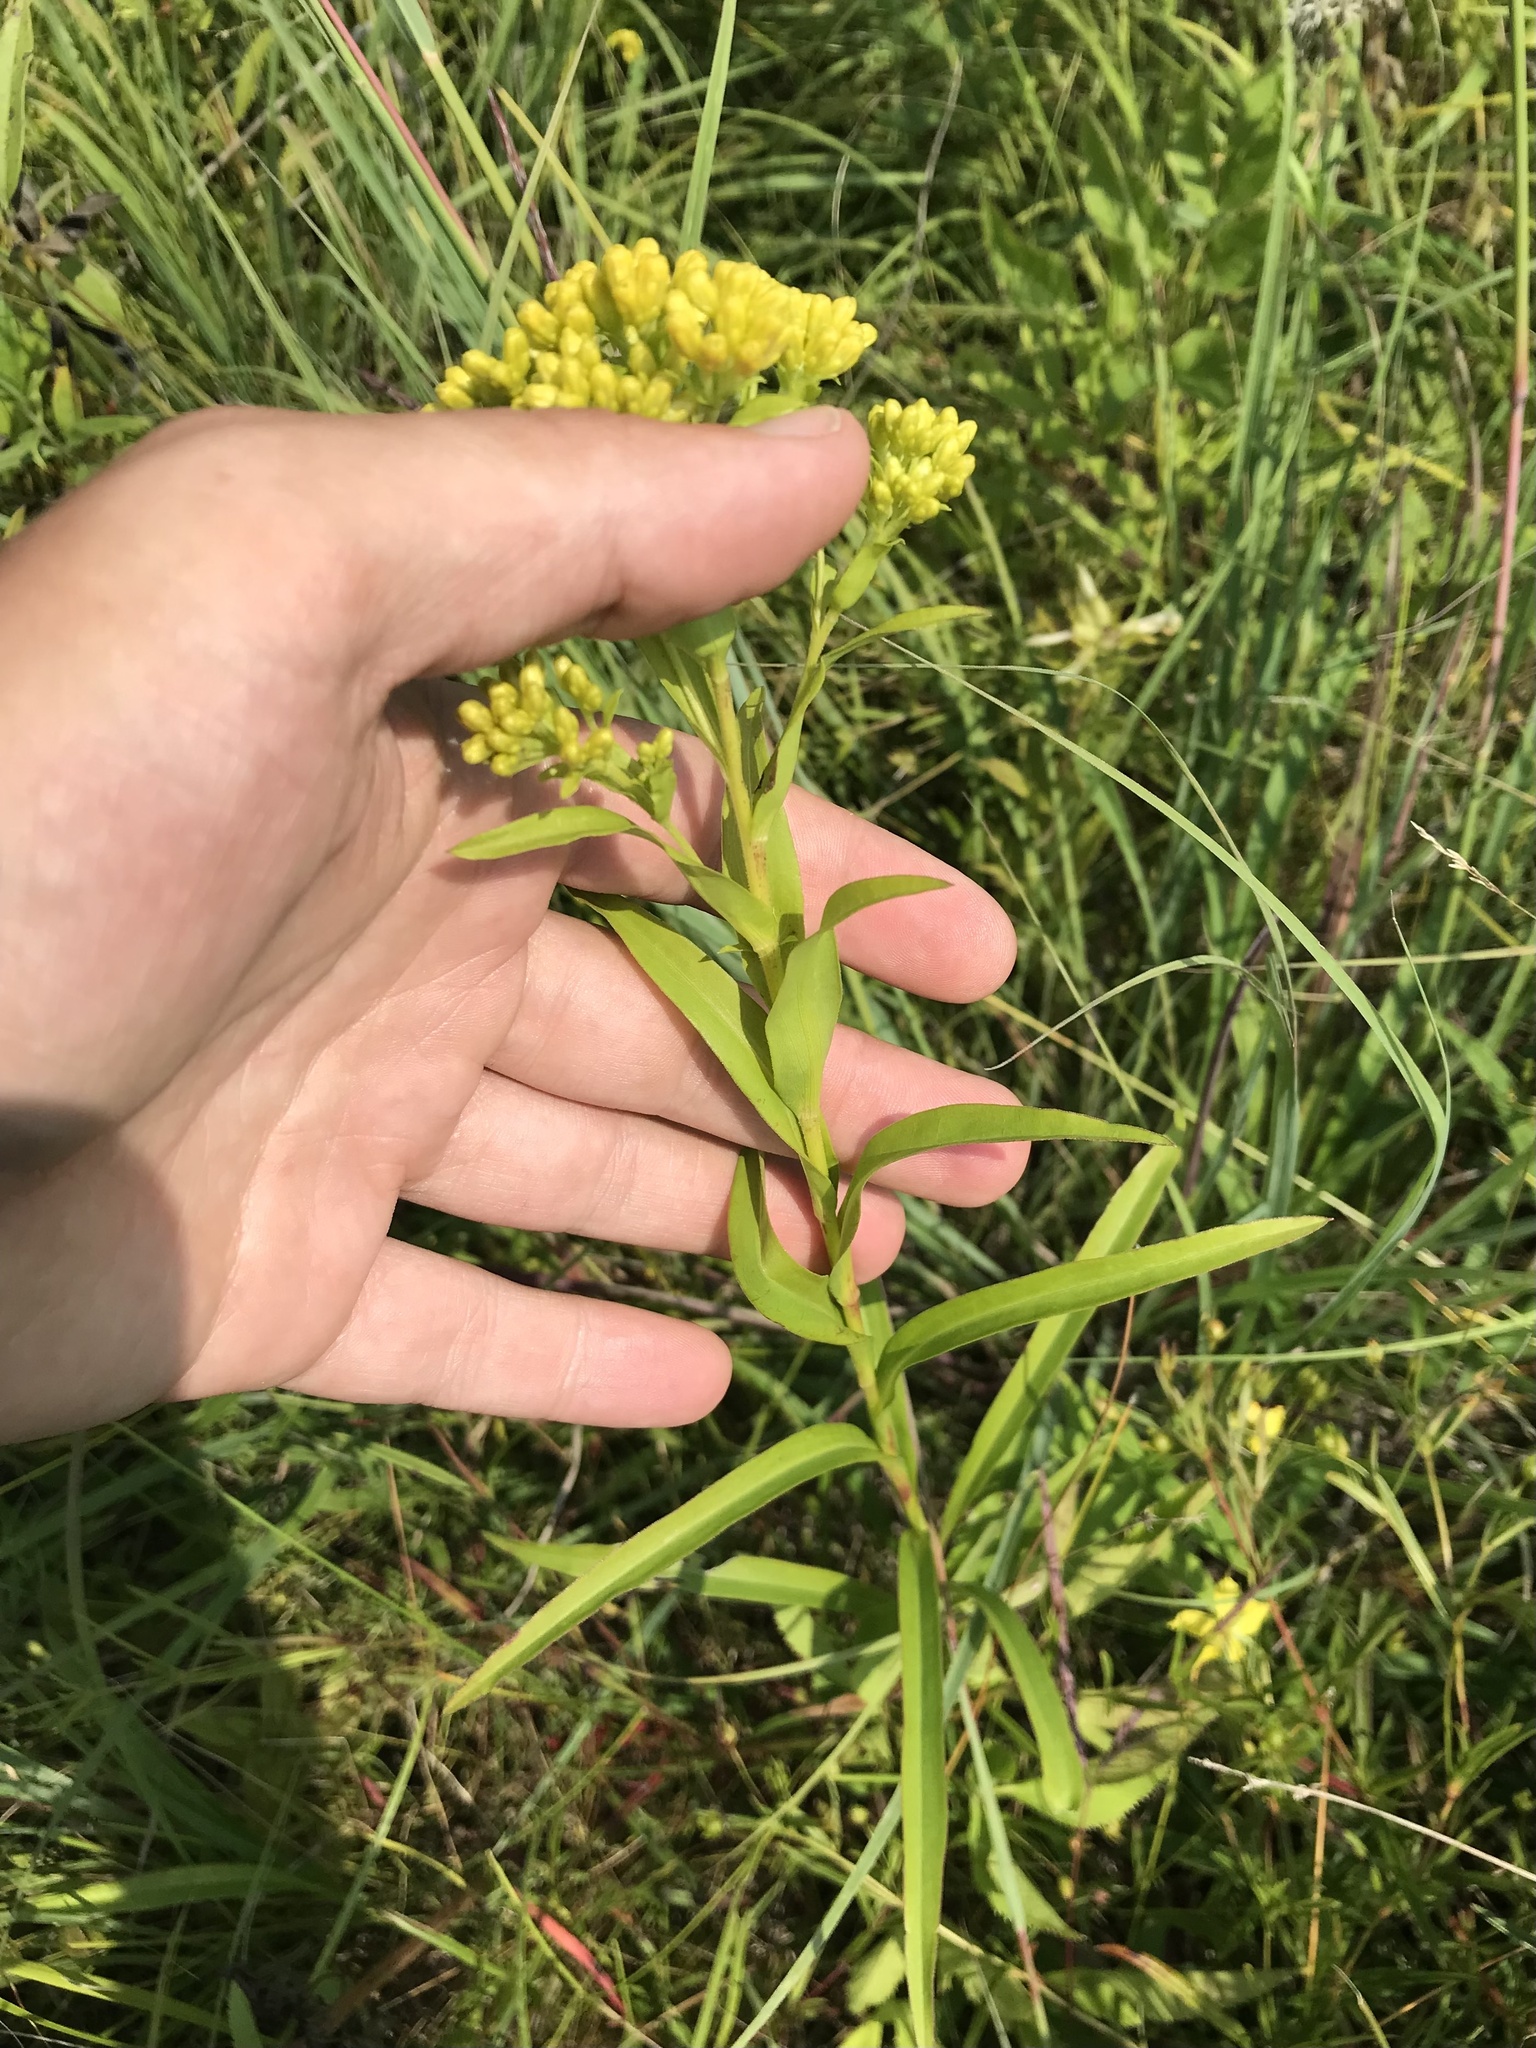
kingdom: Plantae
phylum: Tracheophyta
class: Magnoliopsida
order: Asterales
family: Asteraceae
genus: Solidago
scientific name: Solidago riddellii
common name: Riddell's goldenrod
